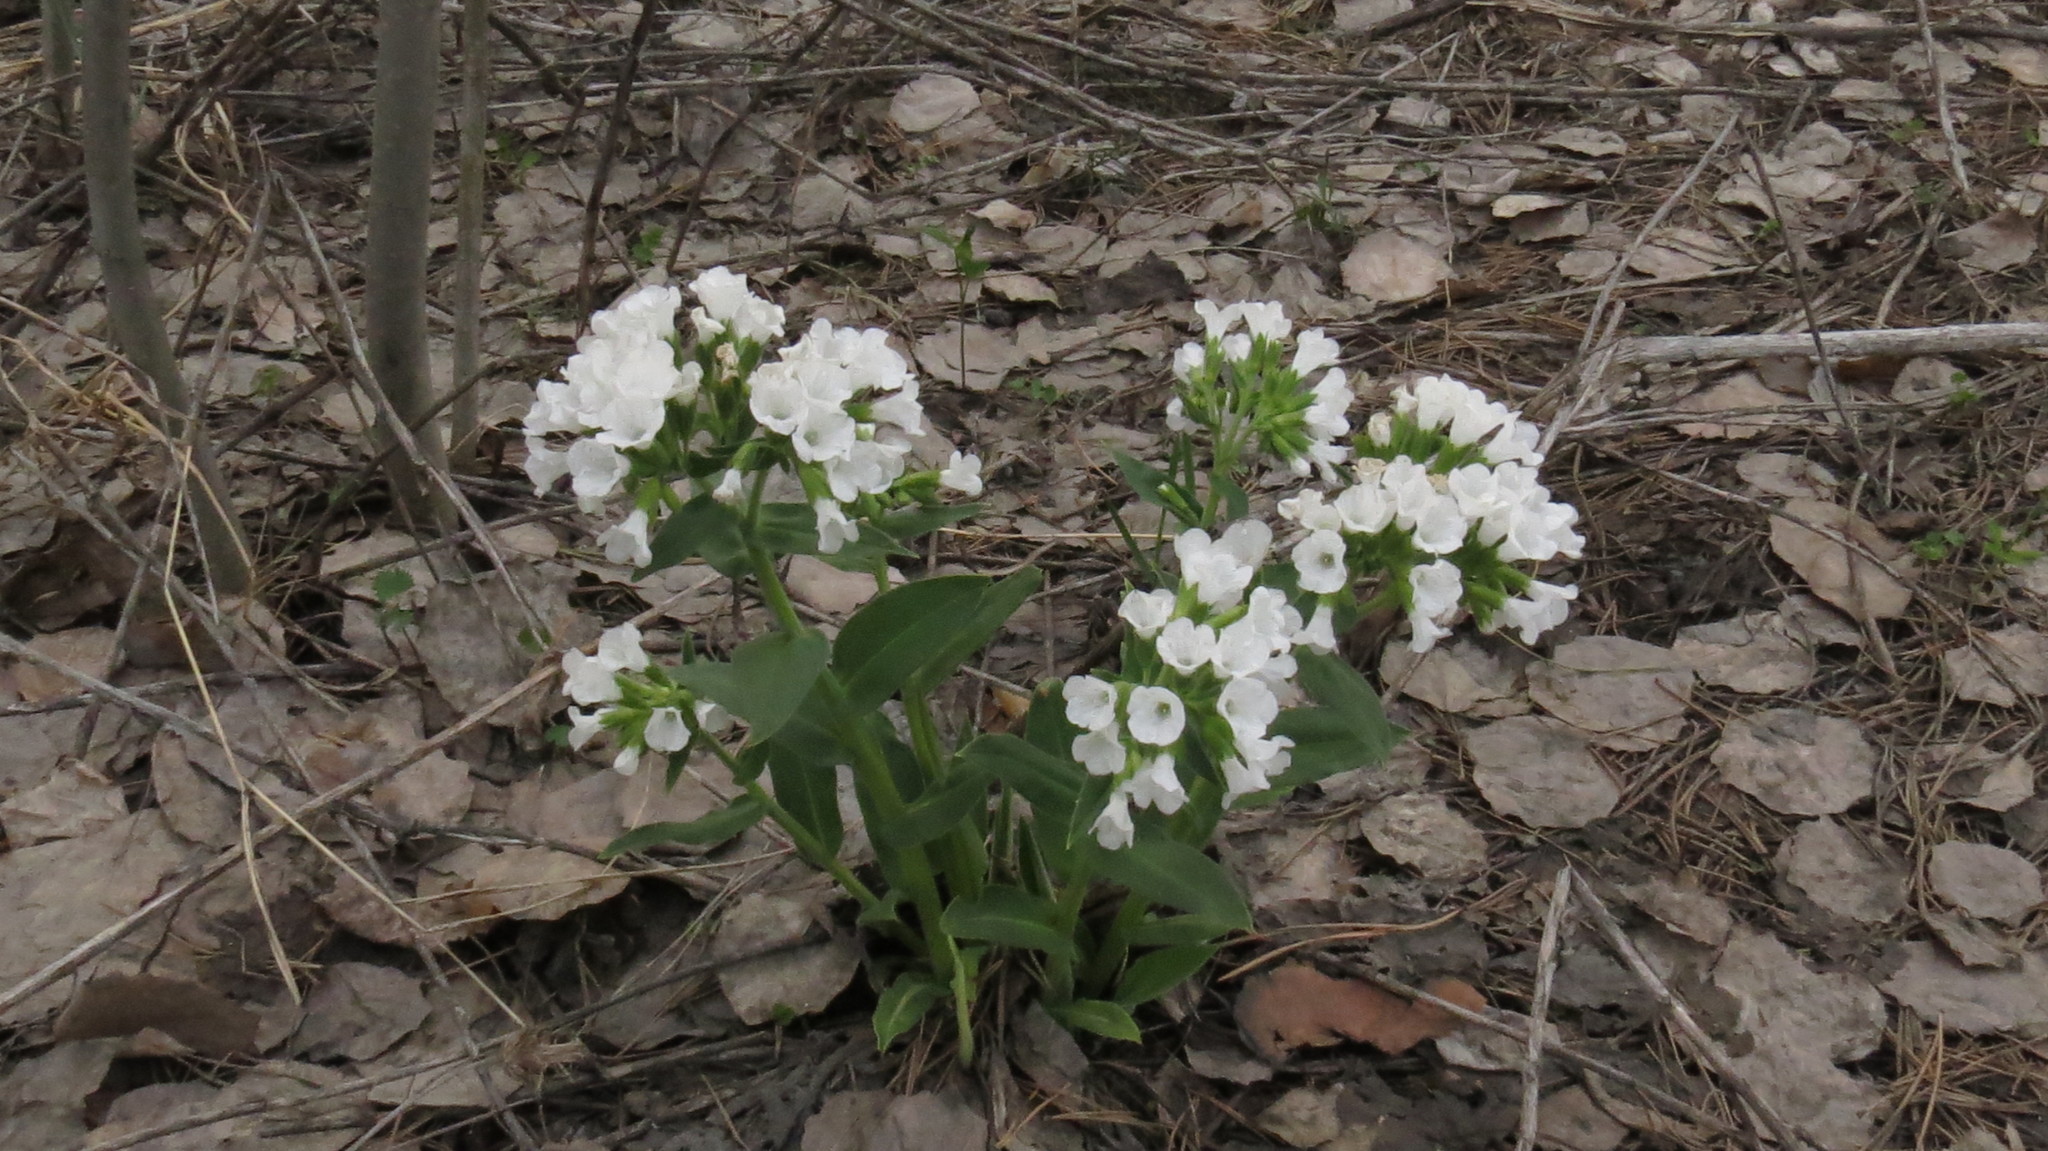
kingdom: Plantae
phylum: Tracheophyta
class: Magnoliopsida
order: Boraginales
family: Boraginaceae
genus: Pulmonaria
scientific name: Pulmonaria mollis
